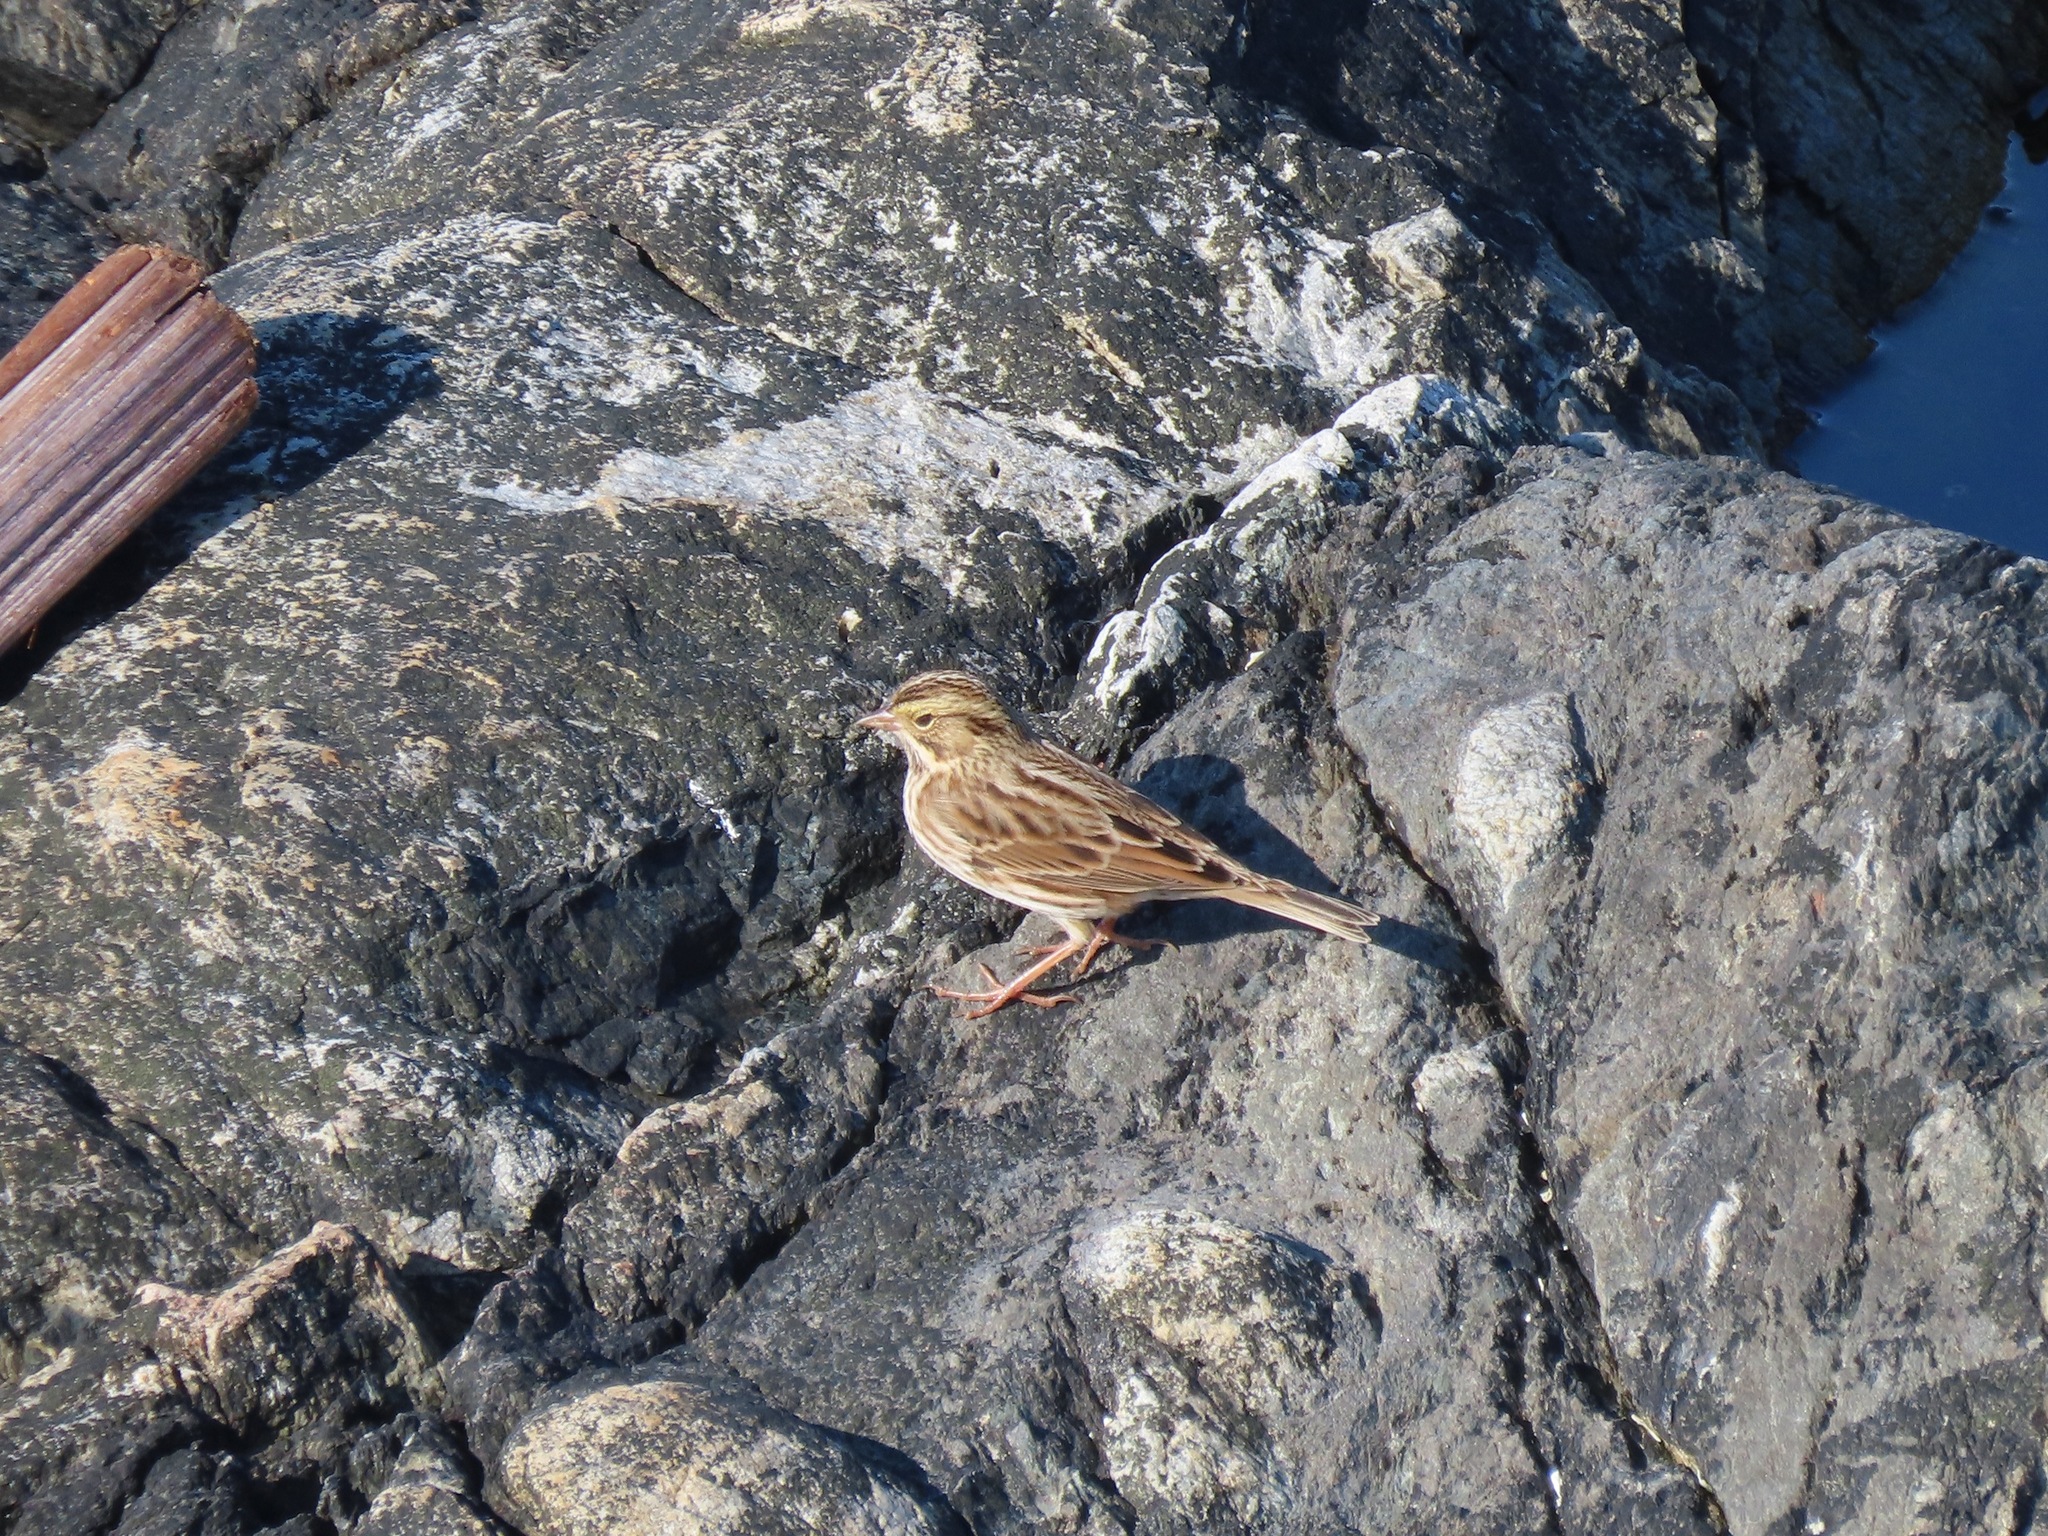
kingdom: Animalia
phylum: Chordata
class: Aves
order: Passeriformes
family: Passerellidae
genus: Passerculus
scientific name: Passerculus sandwichensis
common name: Savannah sparrow
